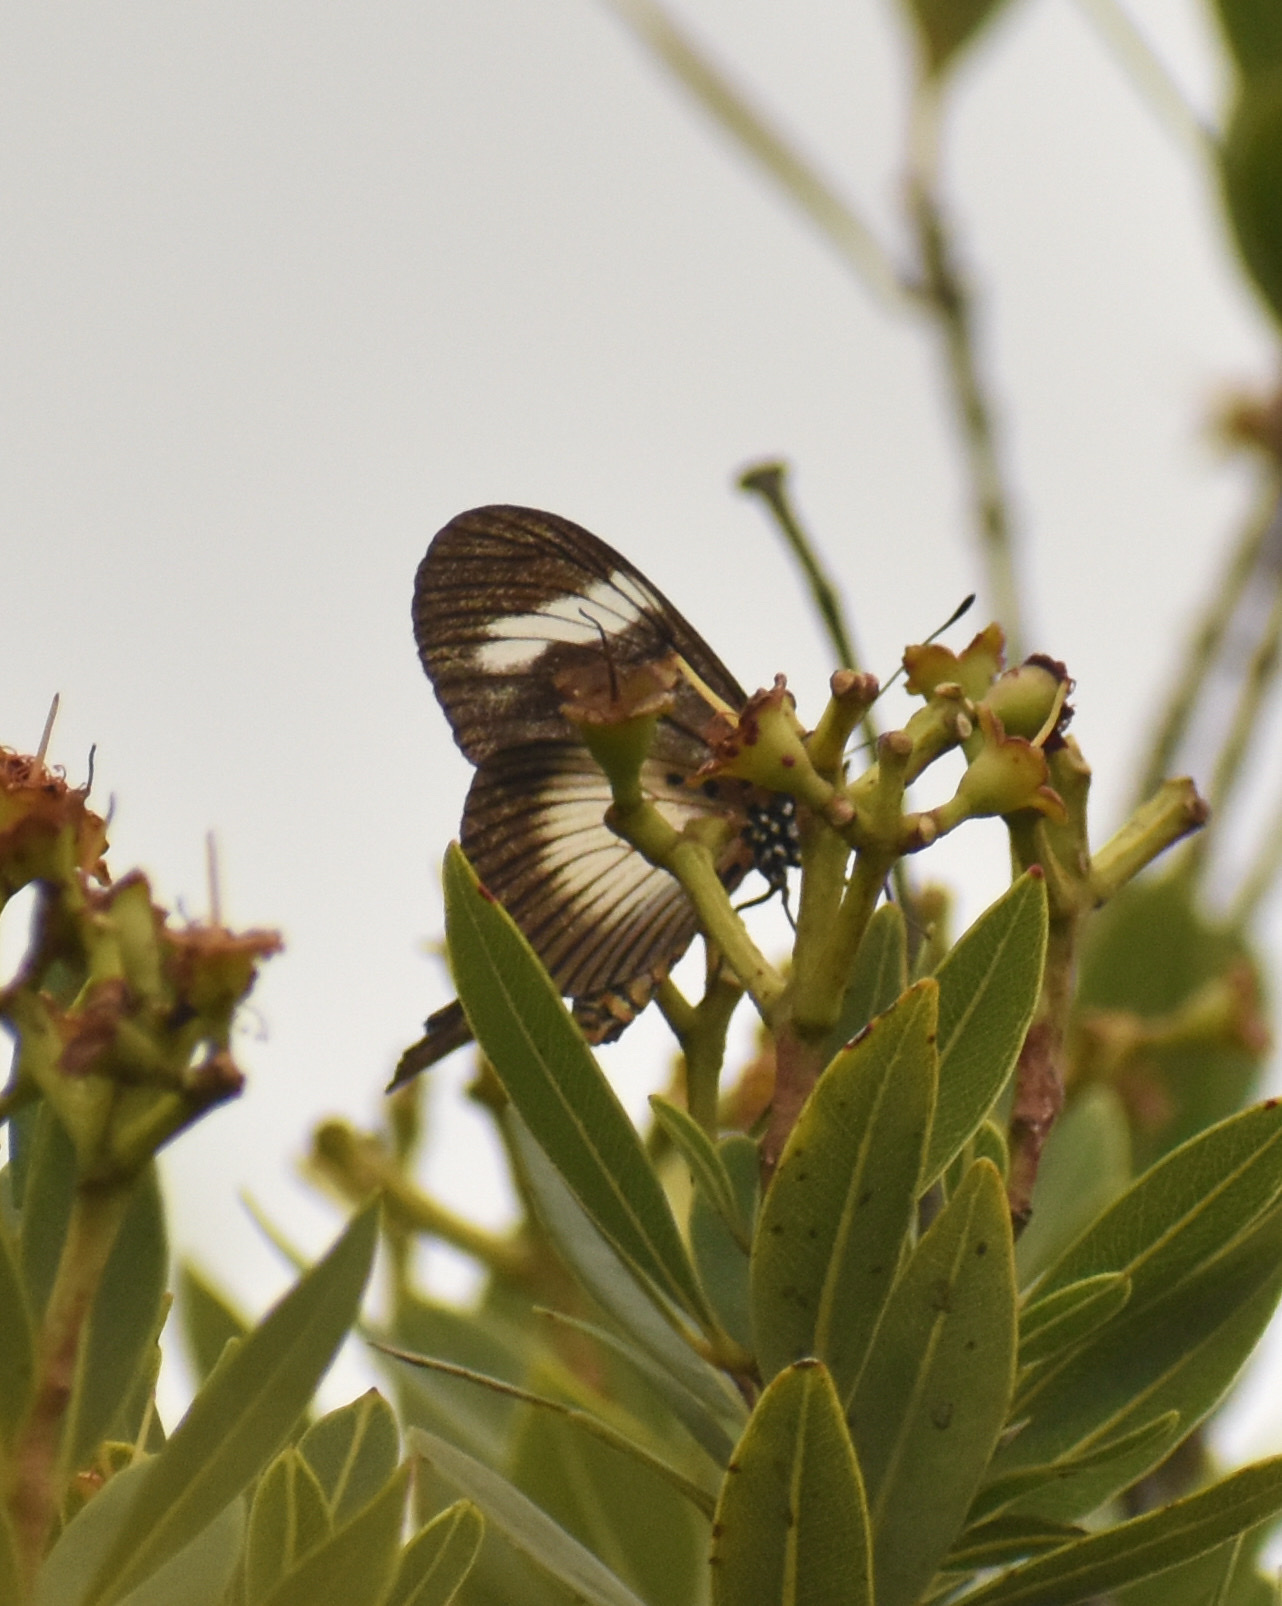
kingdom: Animalia
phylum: Arthropoda
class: Insecta
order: Lepidoptera
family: Nymphalidae
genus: Acraea
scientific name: Acraea esebria
